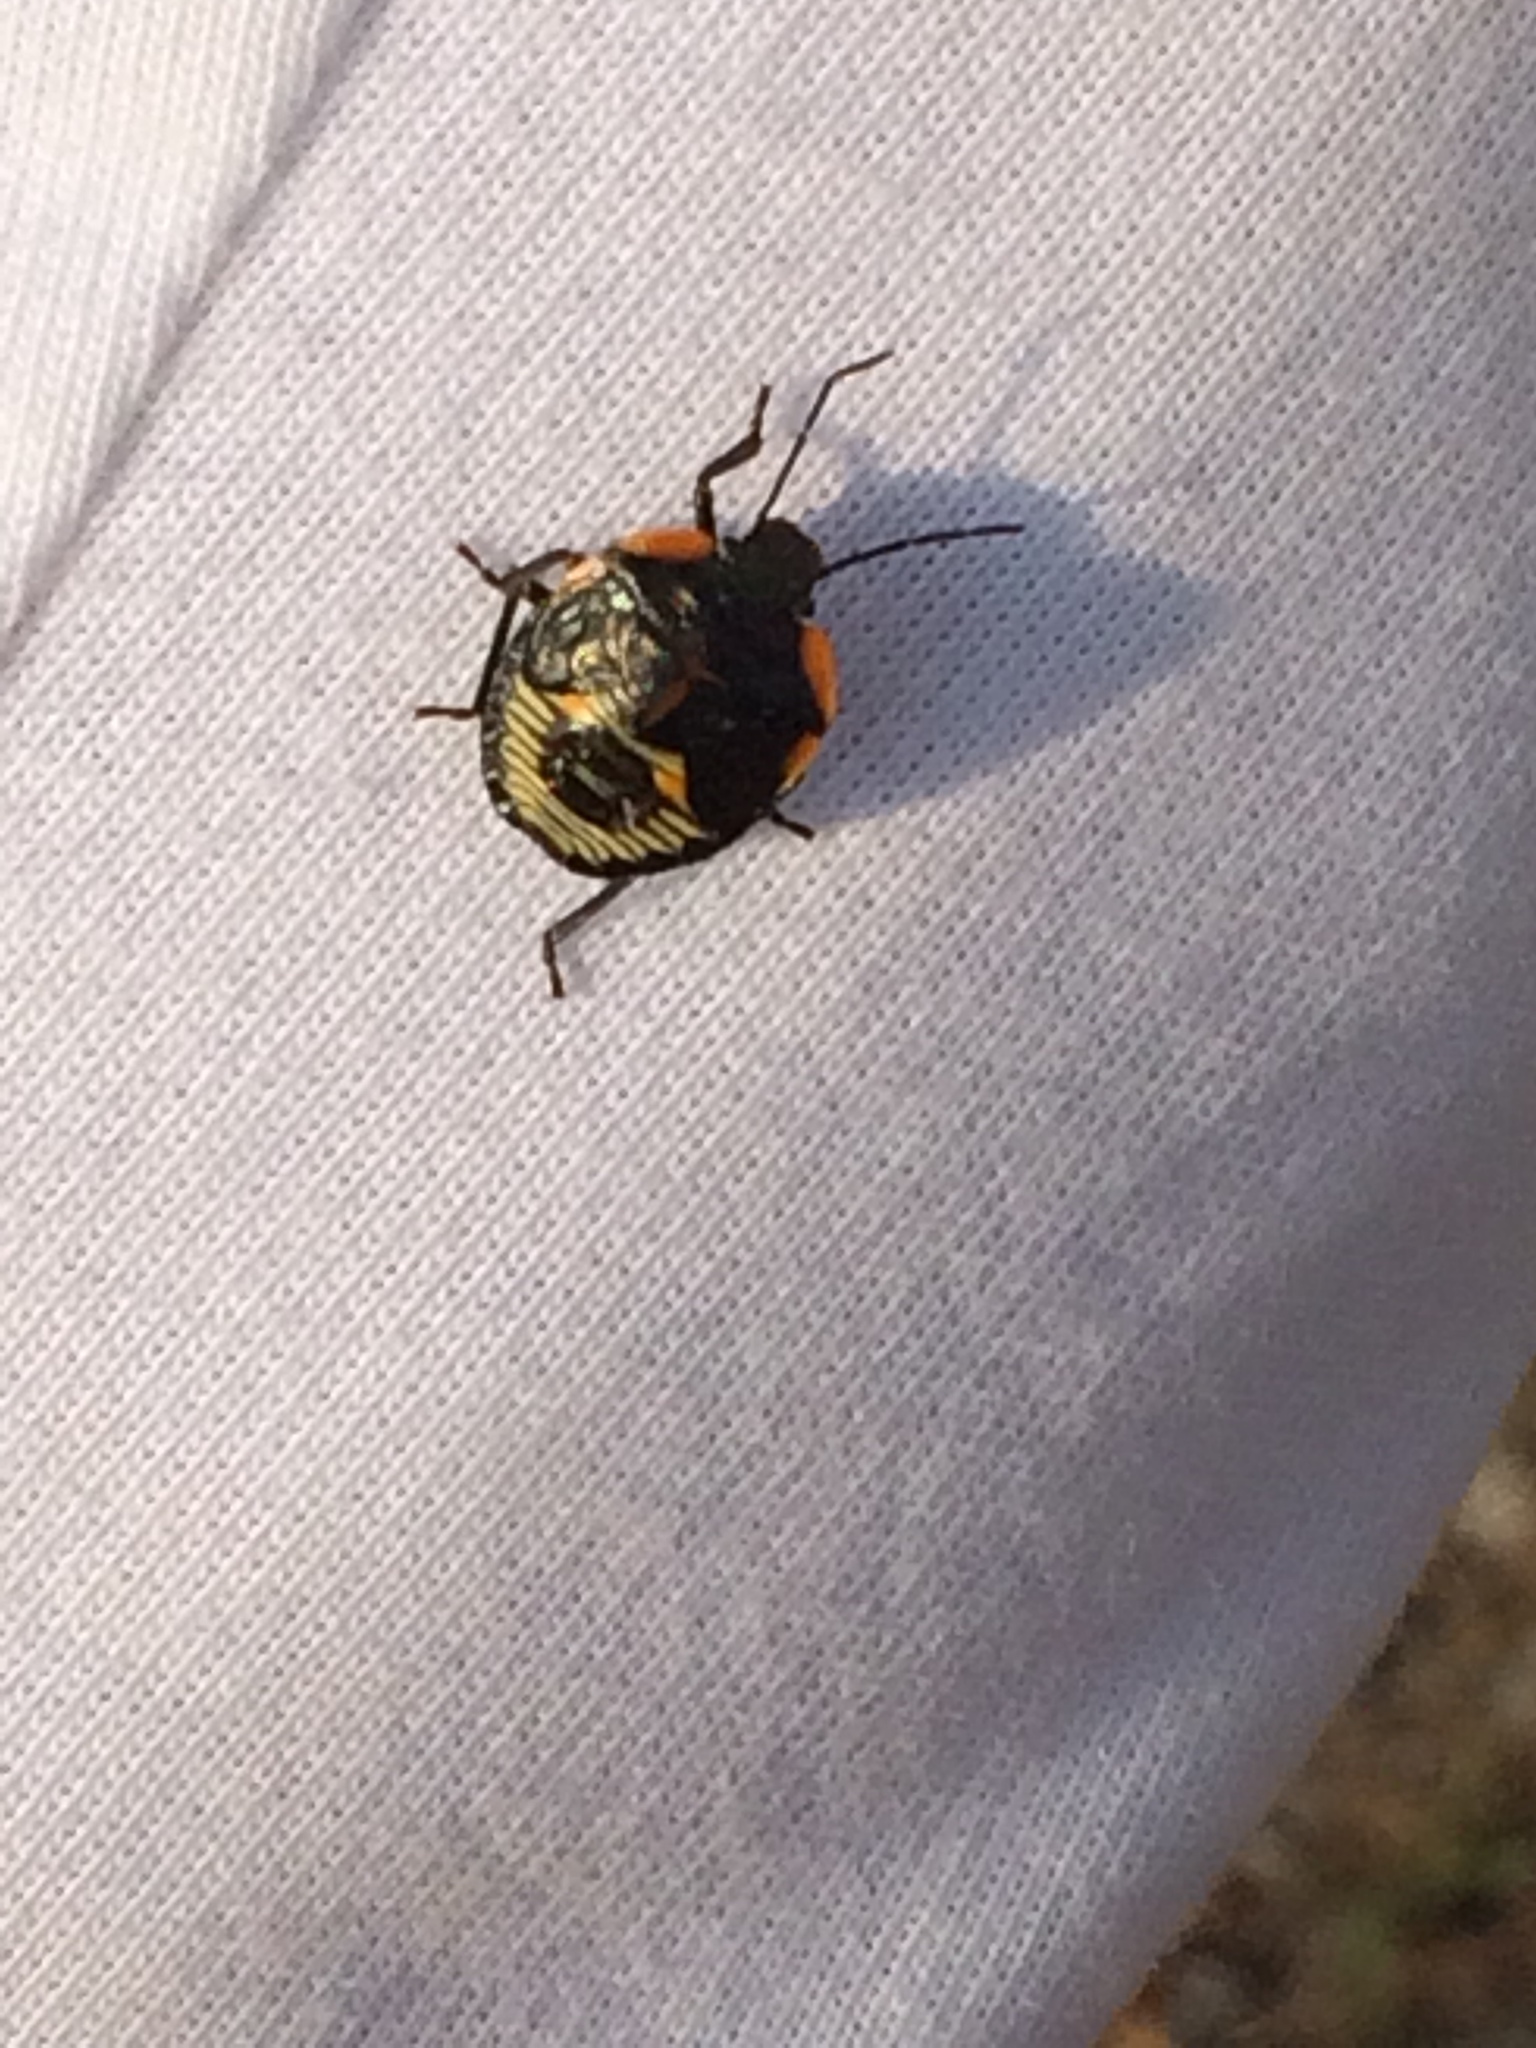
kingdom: Animalia
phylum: Arthropoda
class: Insecta
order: Hemiptera
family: Pentatomidae
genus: Chinavia
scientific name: Chinavia hilaris
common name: Green stink bug
